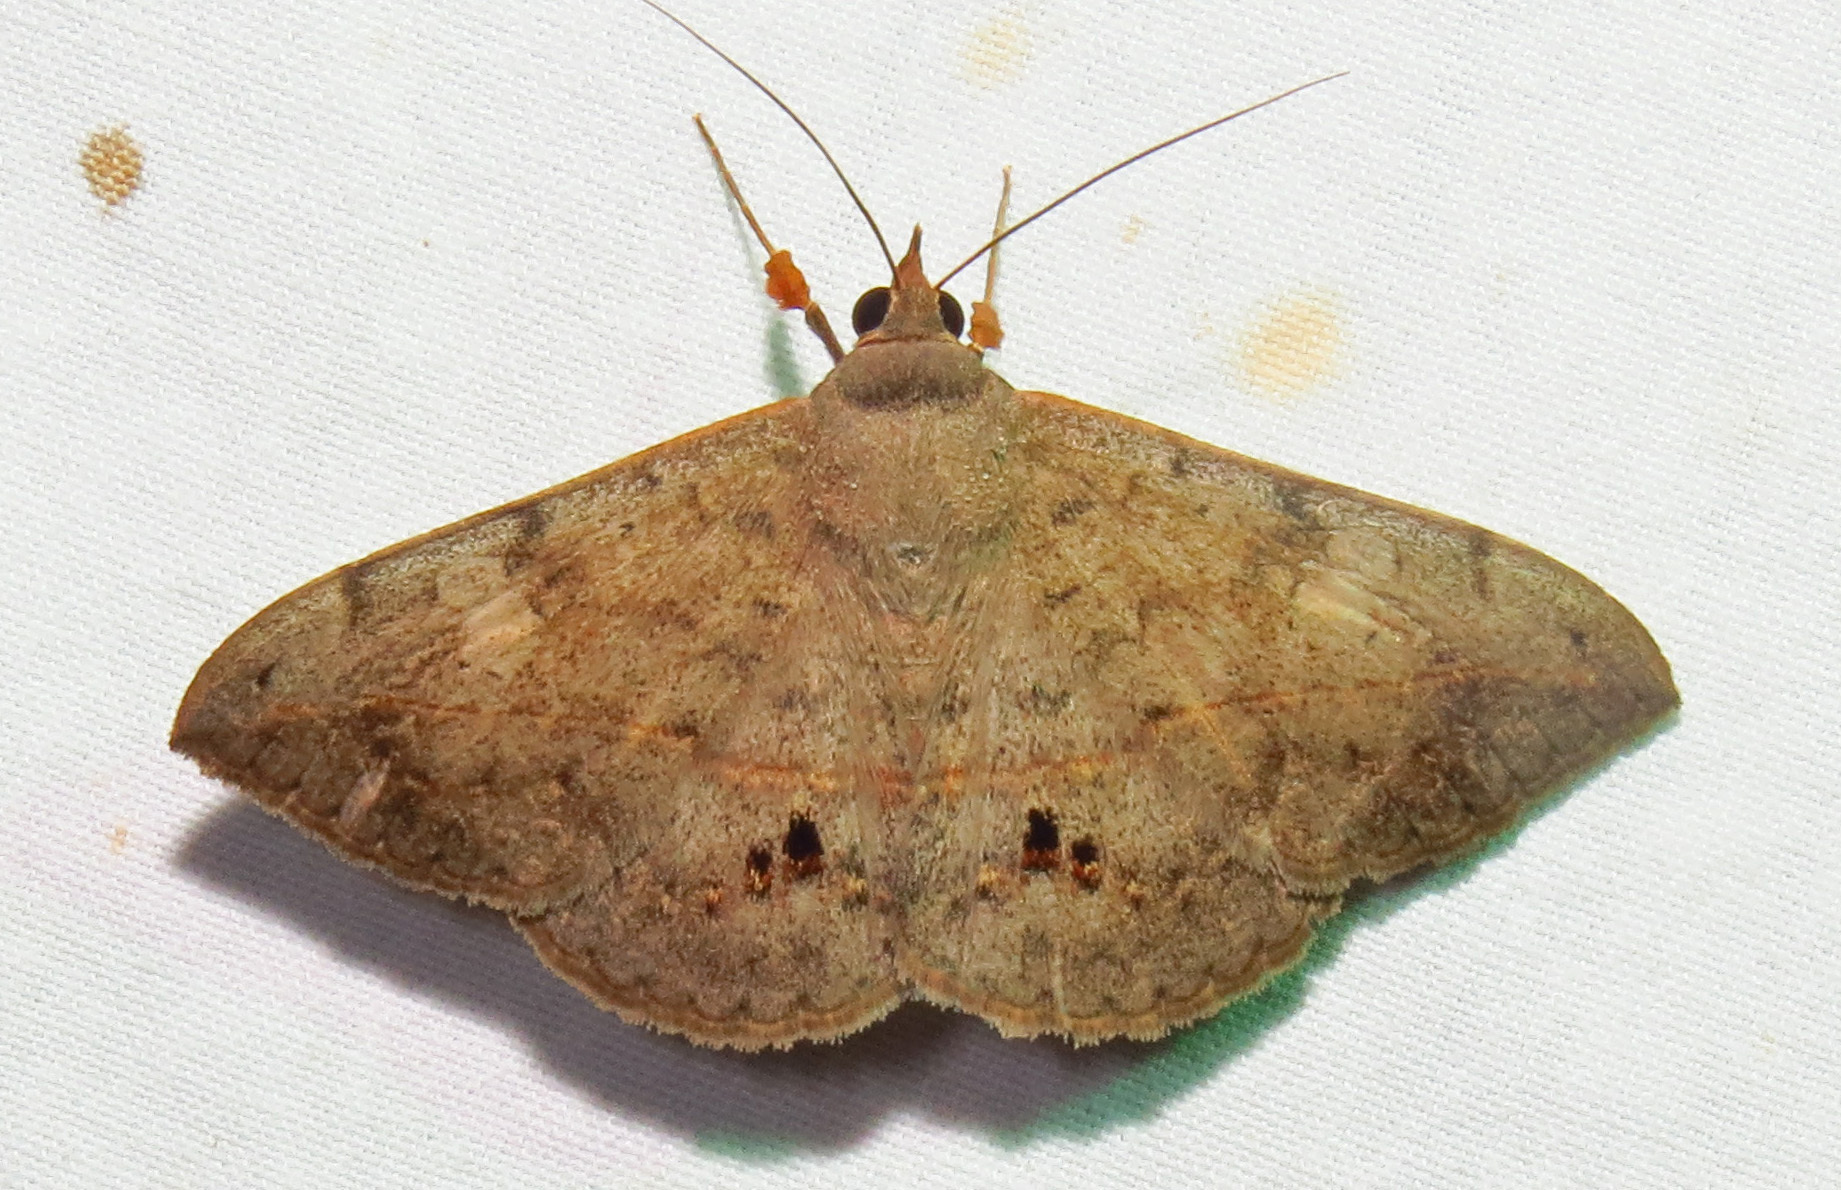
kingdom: Animalia
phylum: Arthropoda
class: Insecta
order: Lepidoptera
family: Erebidae
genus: Anticarsia
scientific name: Anticarsia gemmatalis
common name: Cutworm moth
